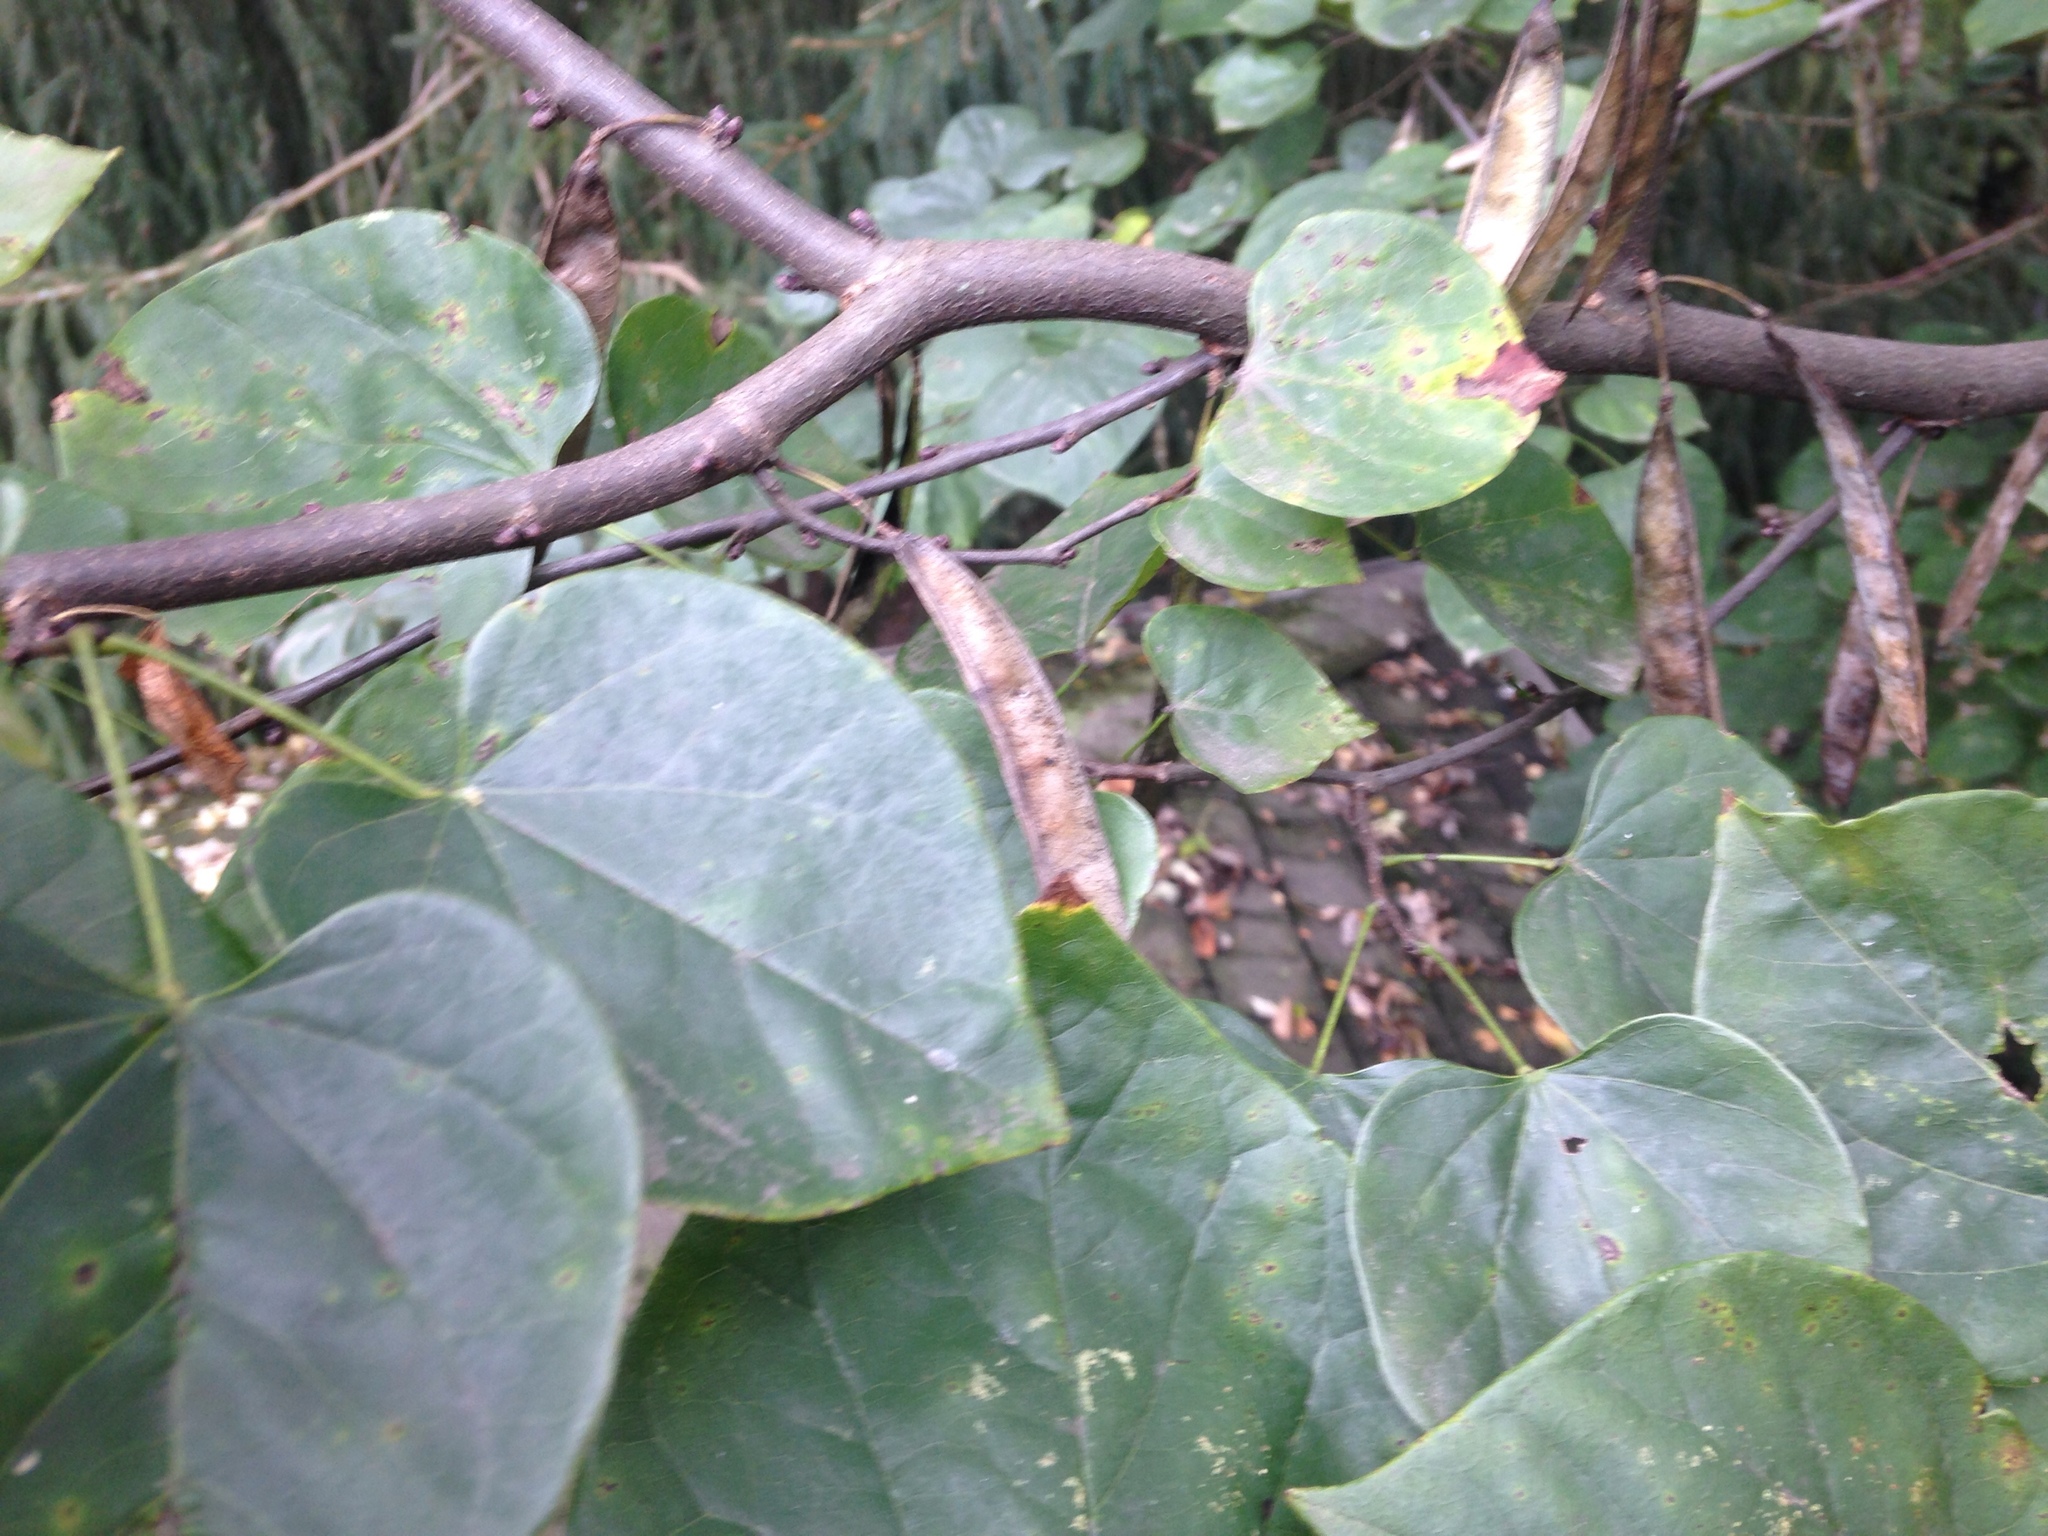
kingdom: Plantae
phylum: Tracheophyta
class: Magnoliopsida
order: Fabales
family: Fabaceae
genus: Cercis
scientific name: Cercis canadensis
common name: Eastern redbud
